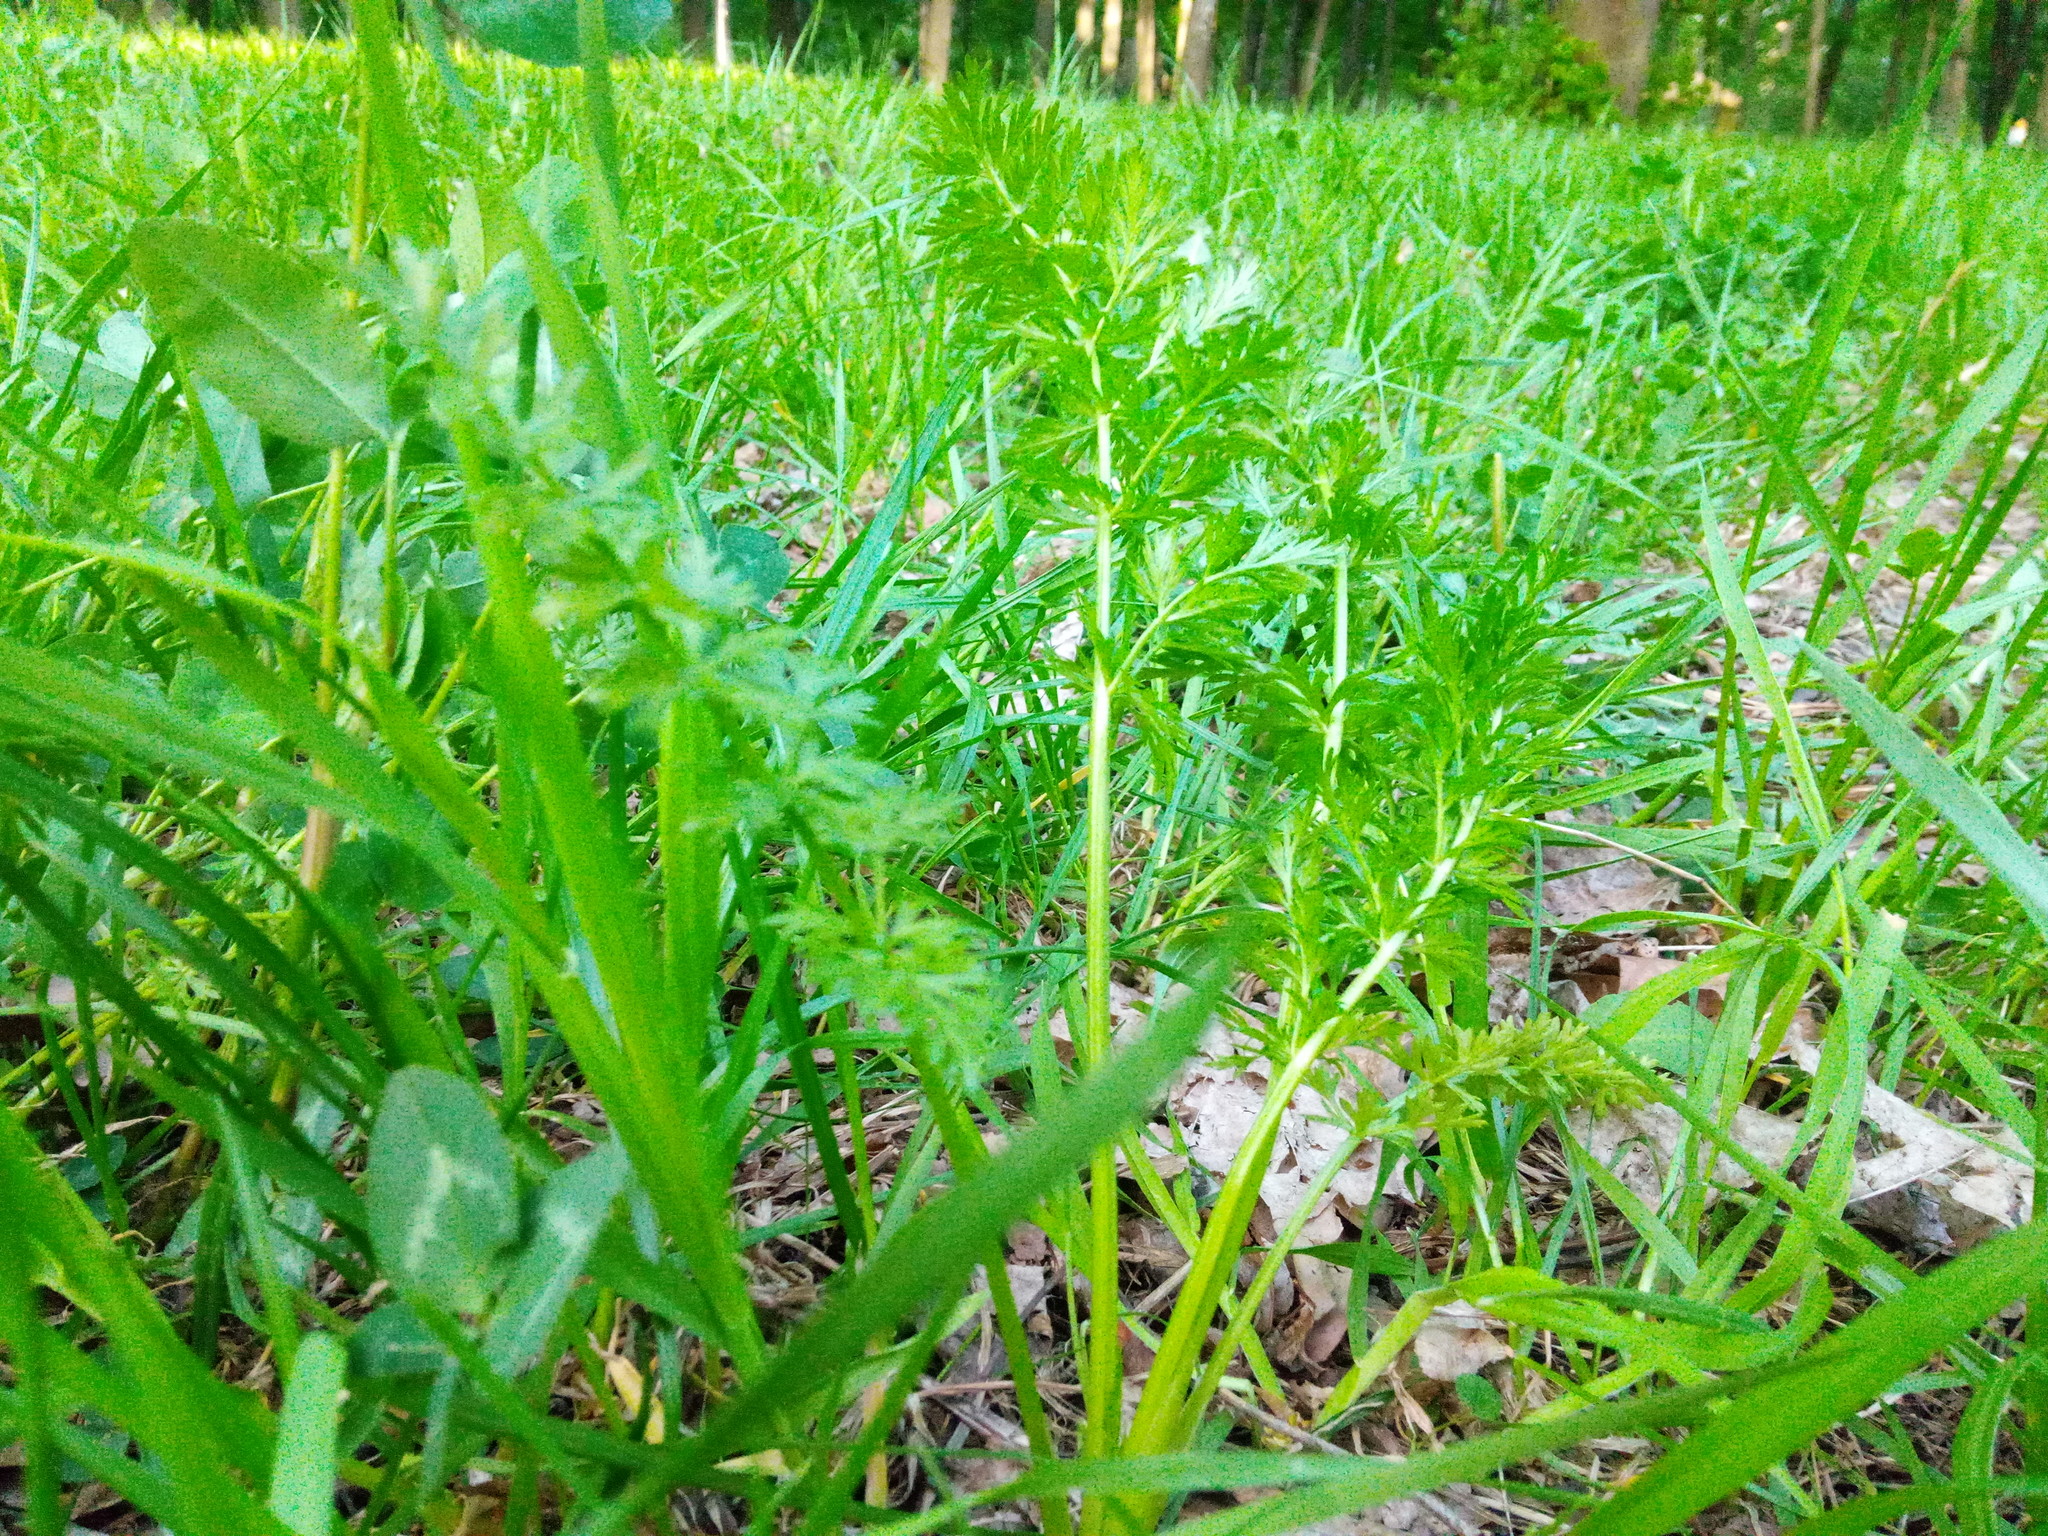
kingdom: Plantae
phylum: Tracheophyta
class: Magnoliopsida
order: Apiales
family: Apiaceae
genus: Carum
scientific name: Carum carvi
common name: Caraway
